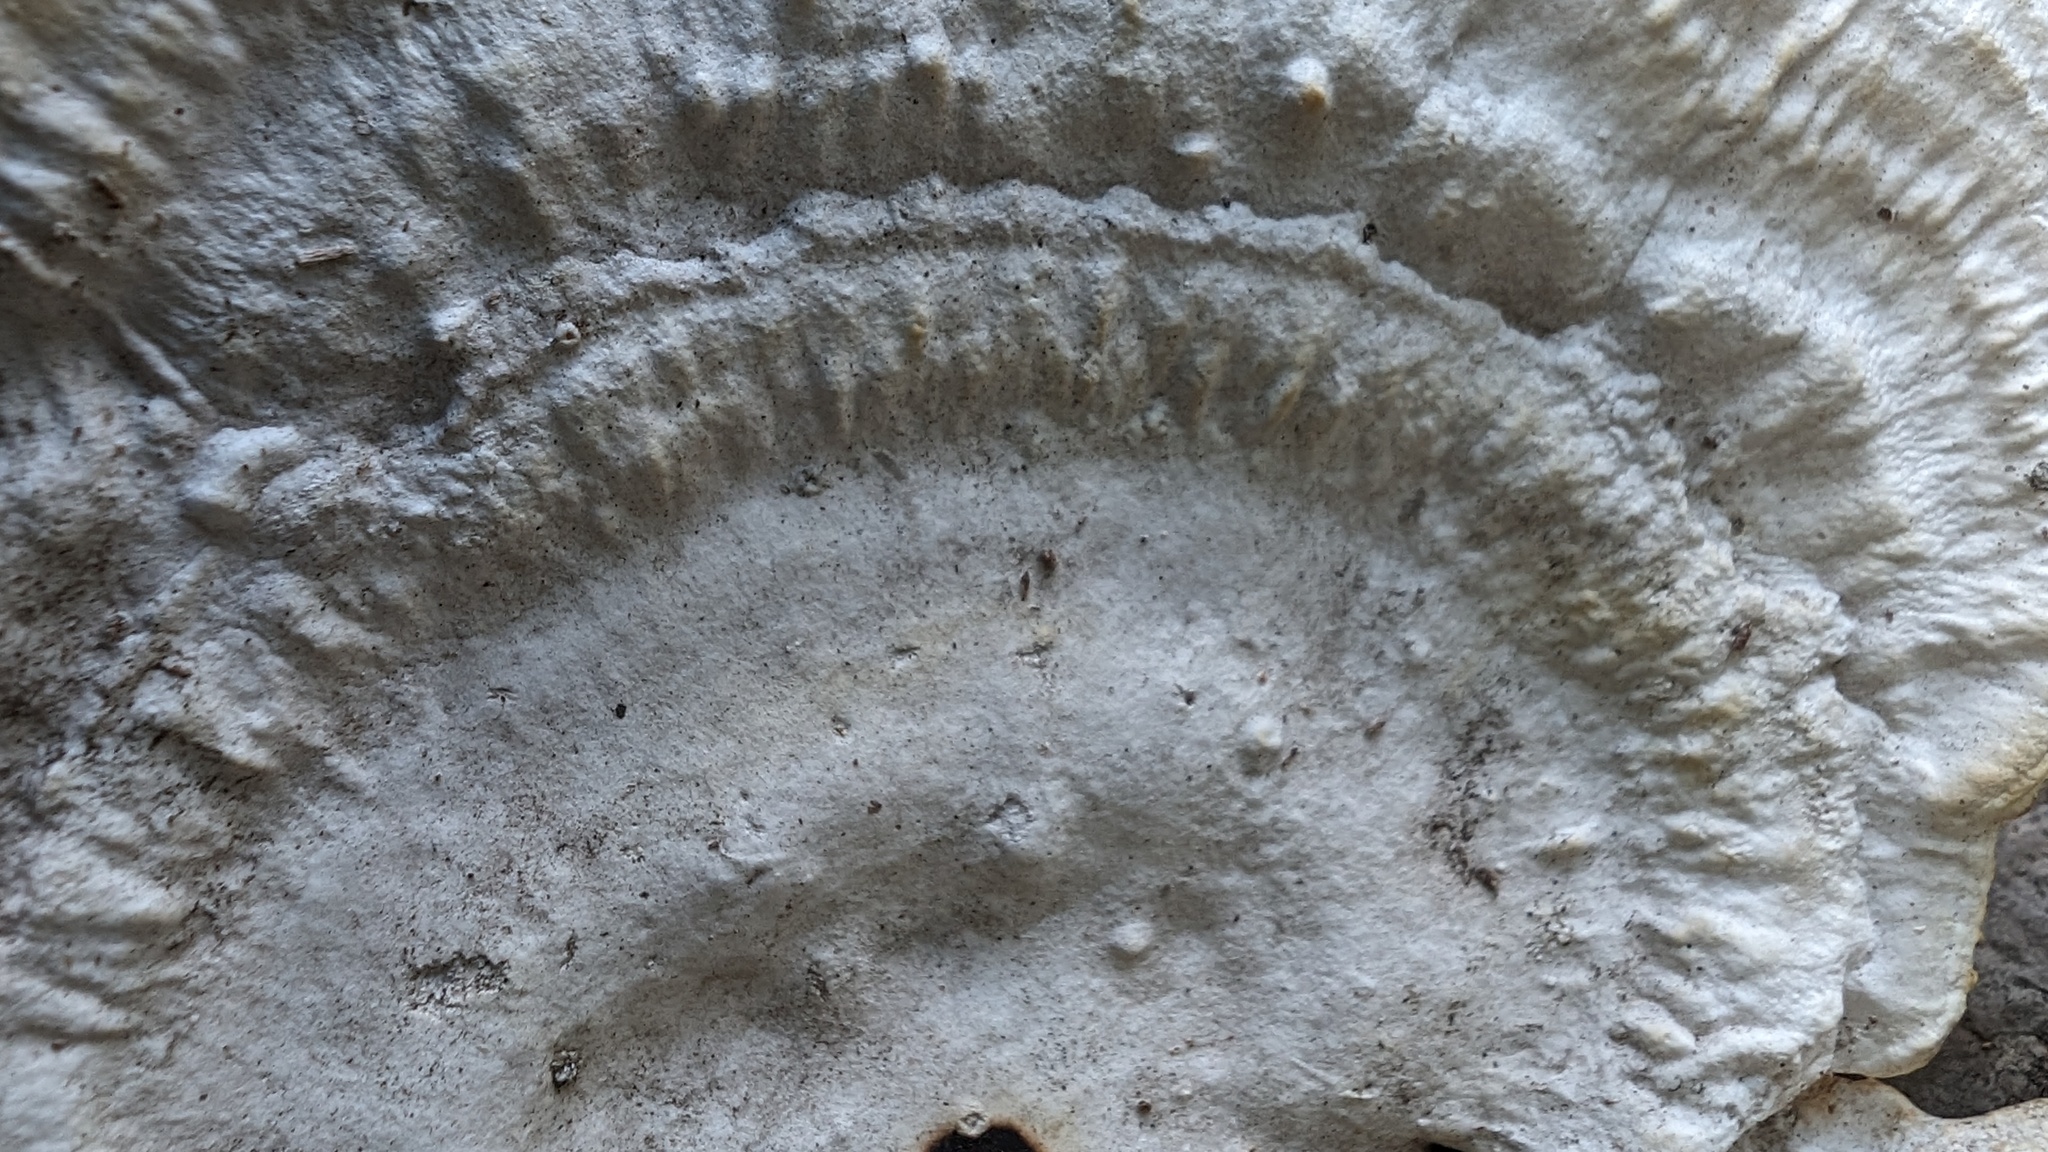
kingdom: Fungi
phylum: Basidiomycota
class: Agaricomycetes
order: Polyporales
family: Polyporaceae
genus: Trametes
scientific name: Trametes elegans
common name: White maze polypore
